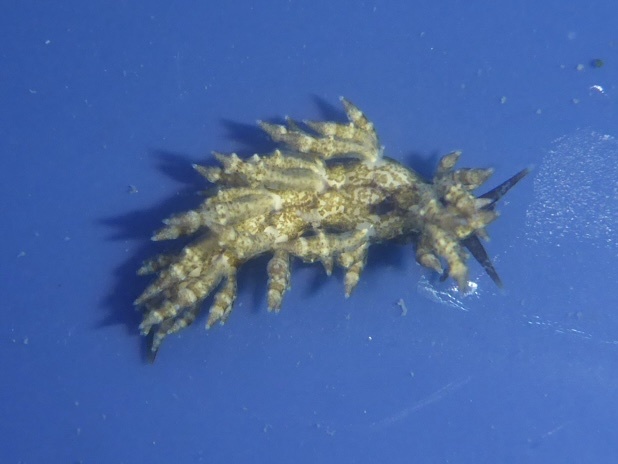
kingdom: Animalia
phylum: Mollusca
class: Gastropoda
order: Nudibranchia
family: Eubranchidae
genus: Eubranchus
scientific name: Eubranchus rustyus
